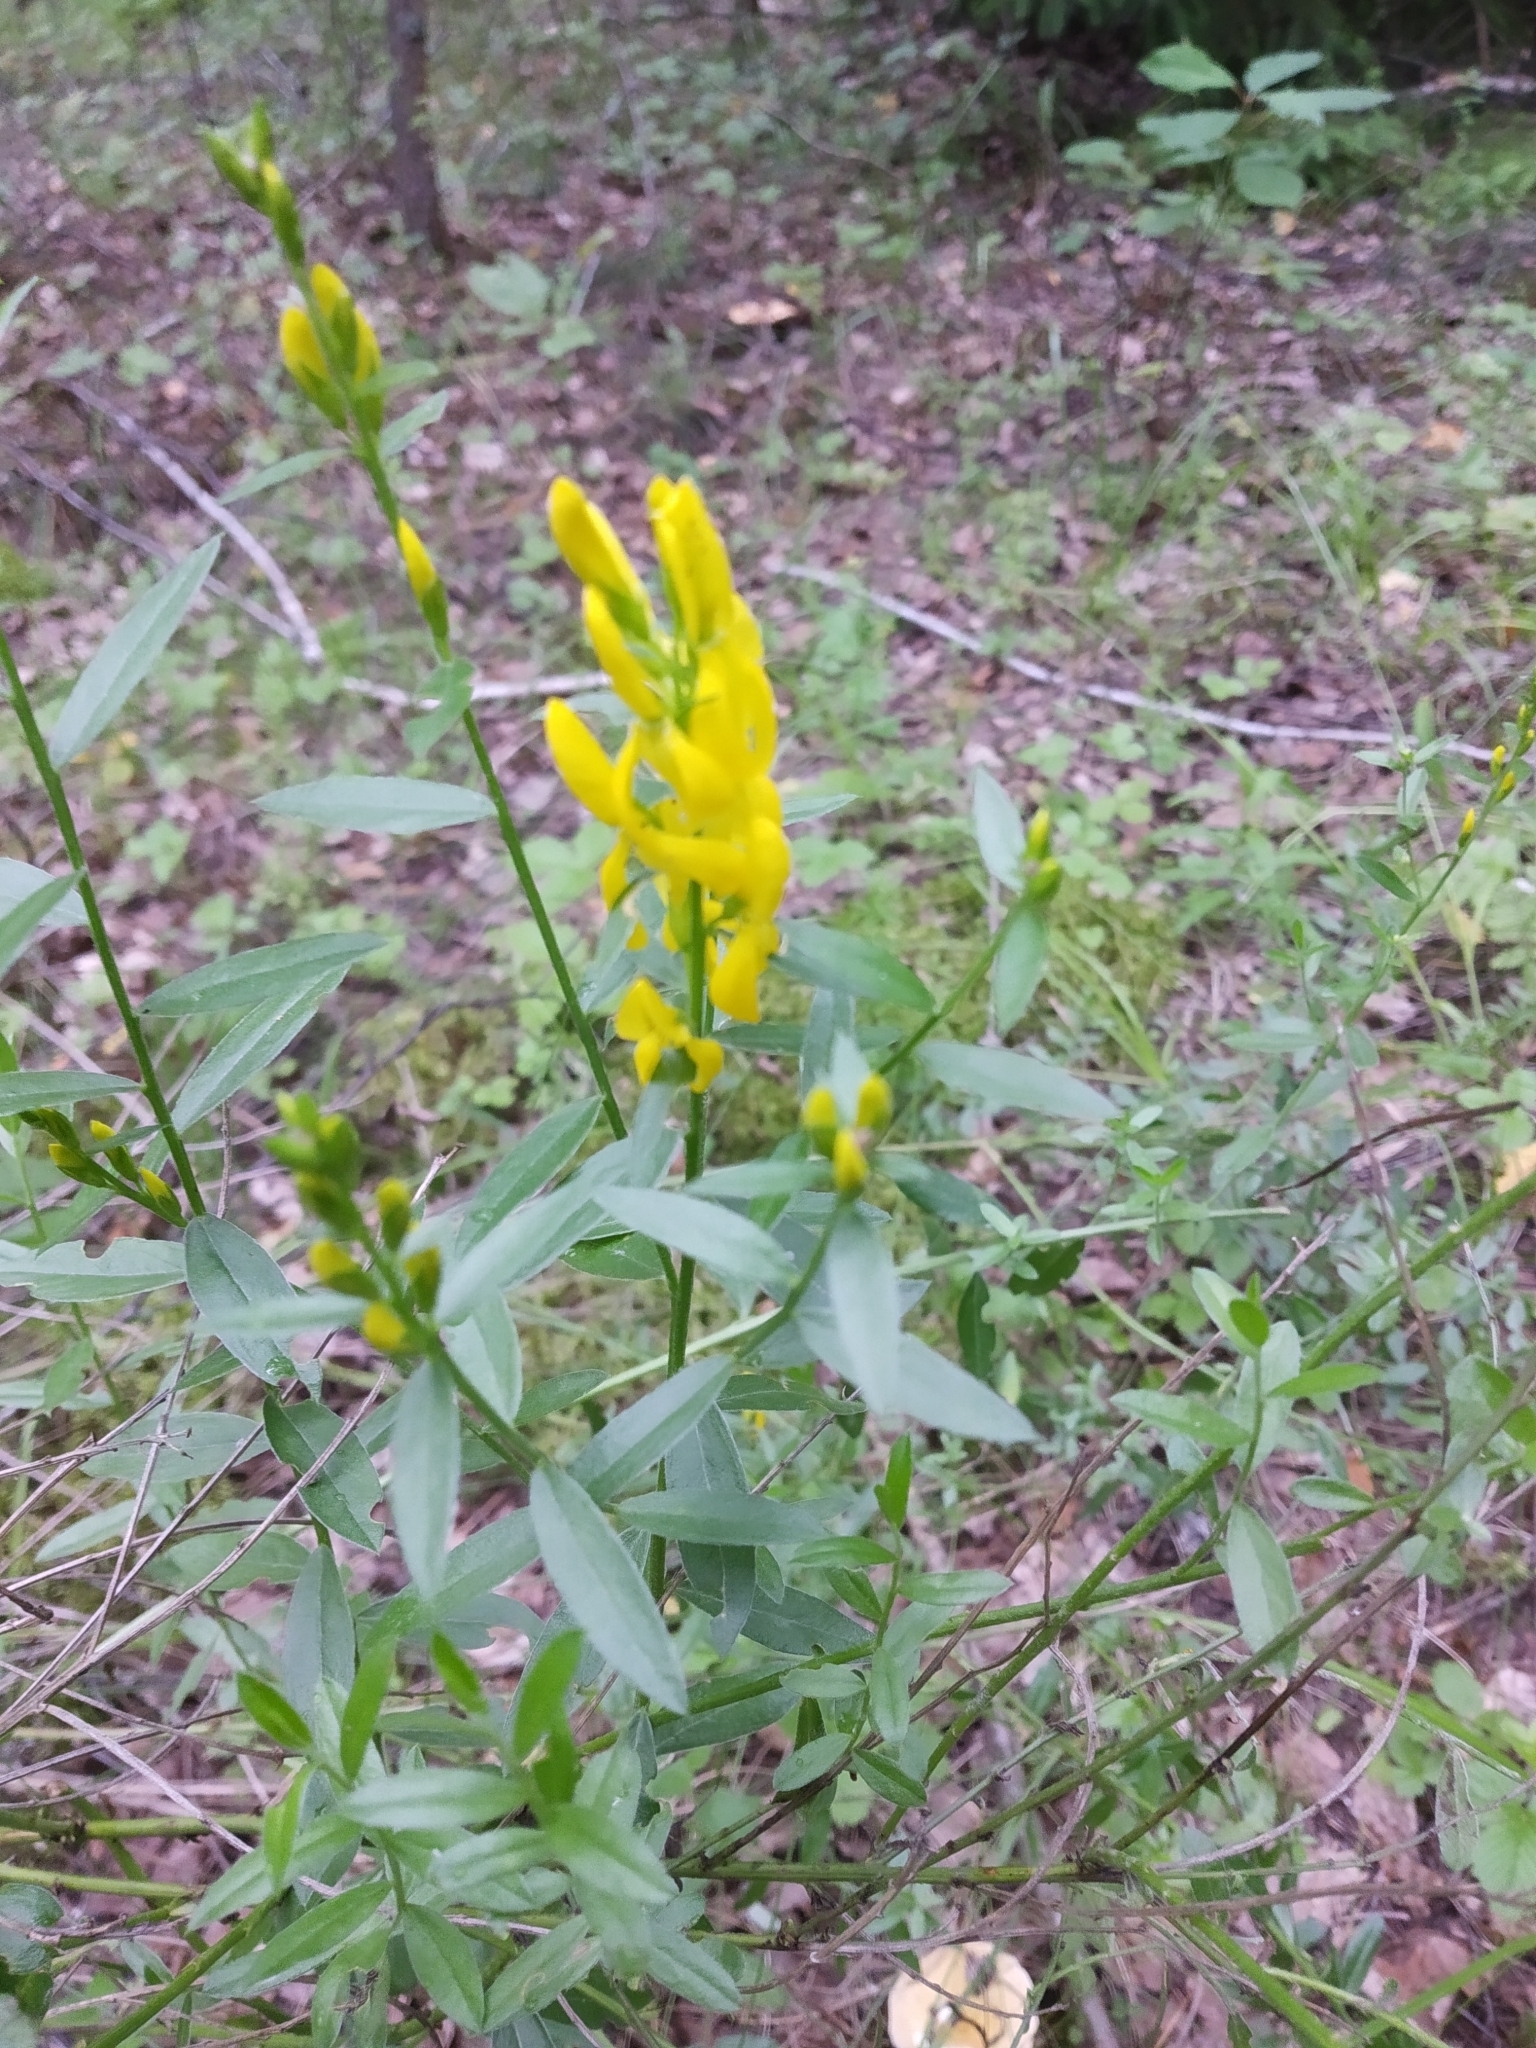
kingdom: Plantae
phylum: Tracheophyta
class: Magnoliopsida
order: Fabales
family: Fabaceae
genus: Genista
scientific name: Genista tinctoria
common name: Dyer's greenweed
